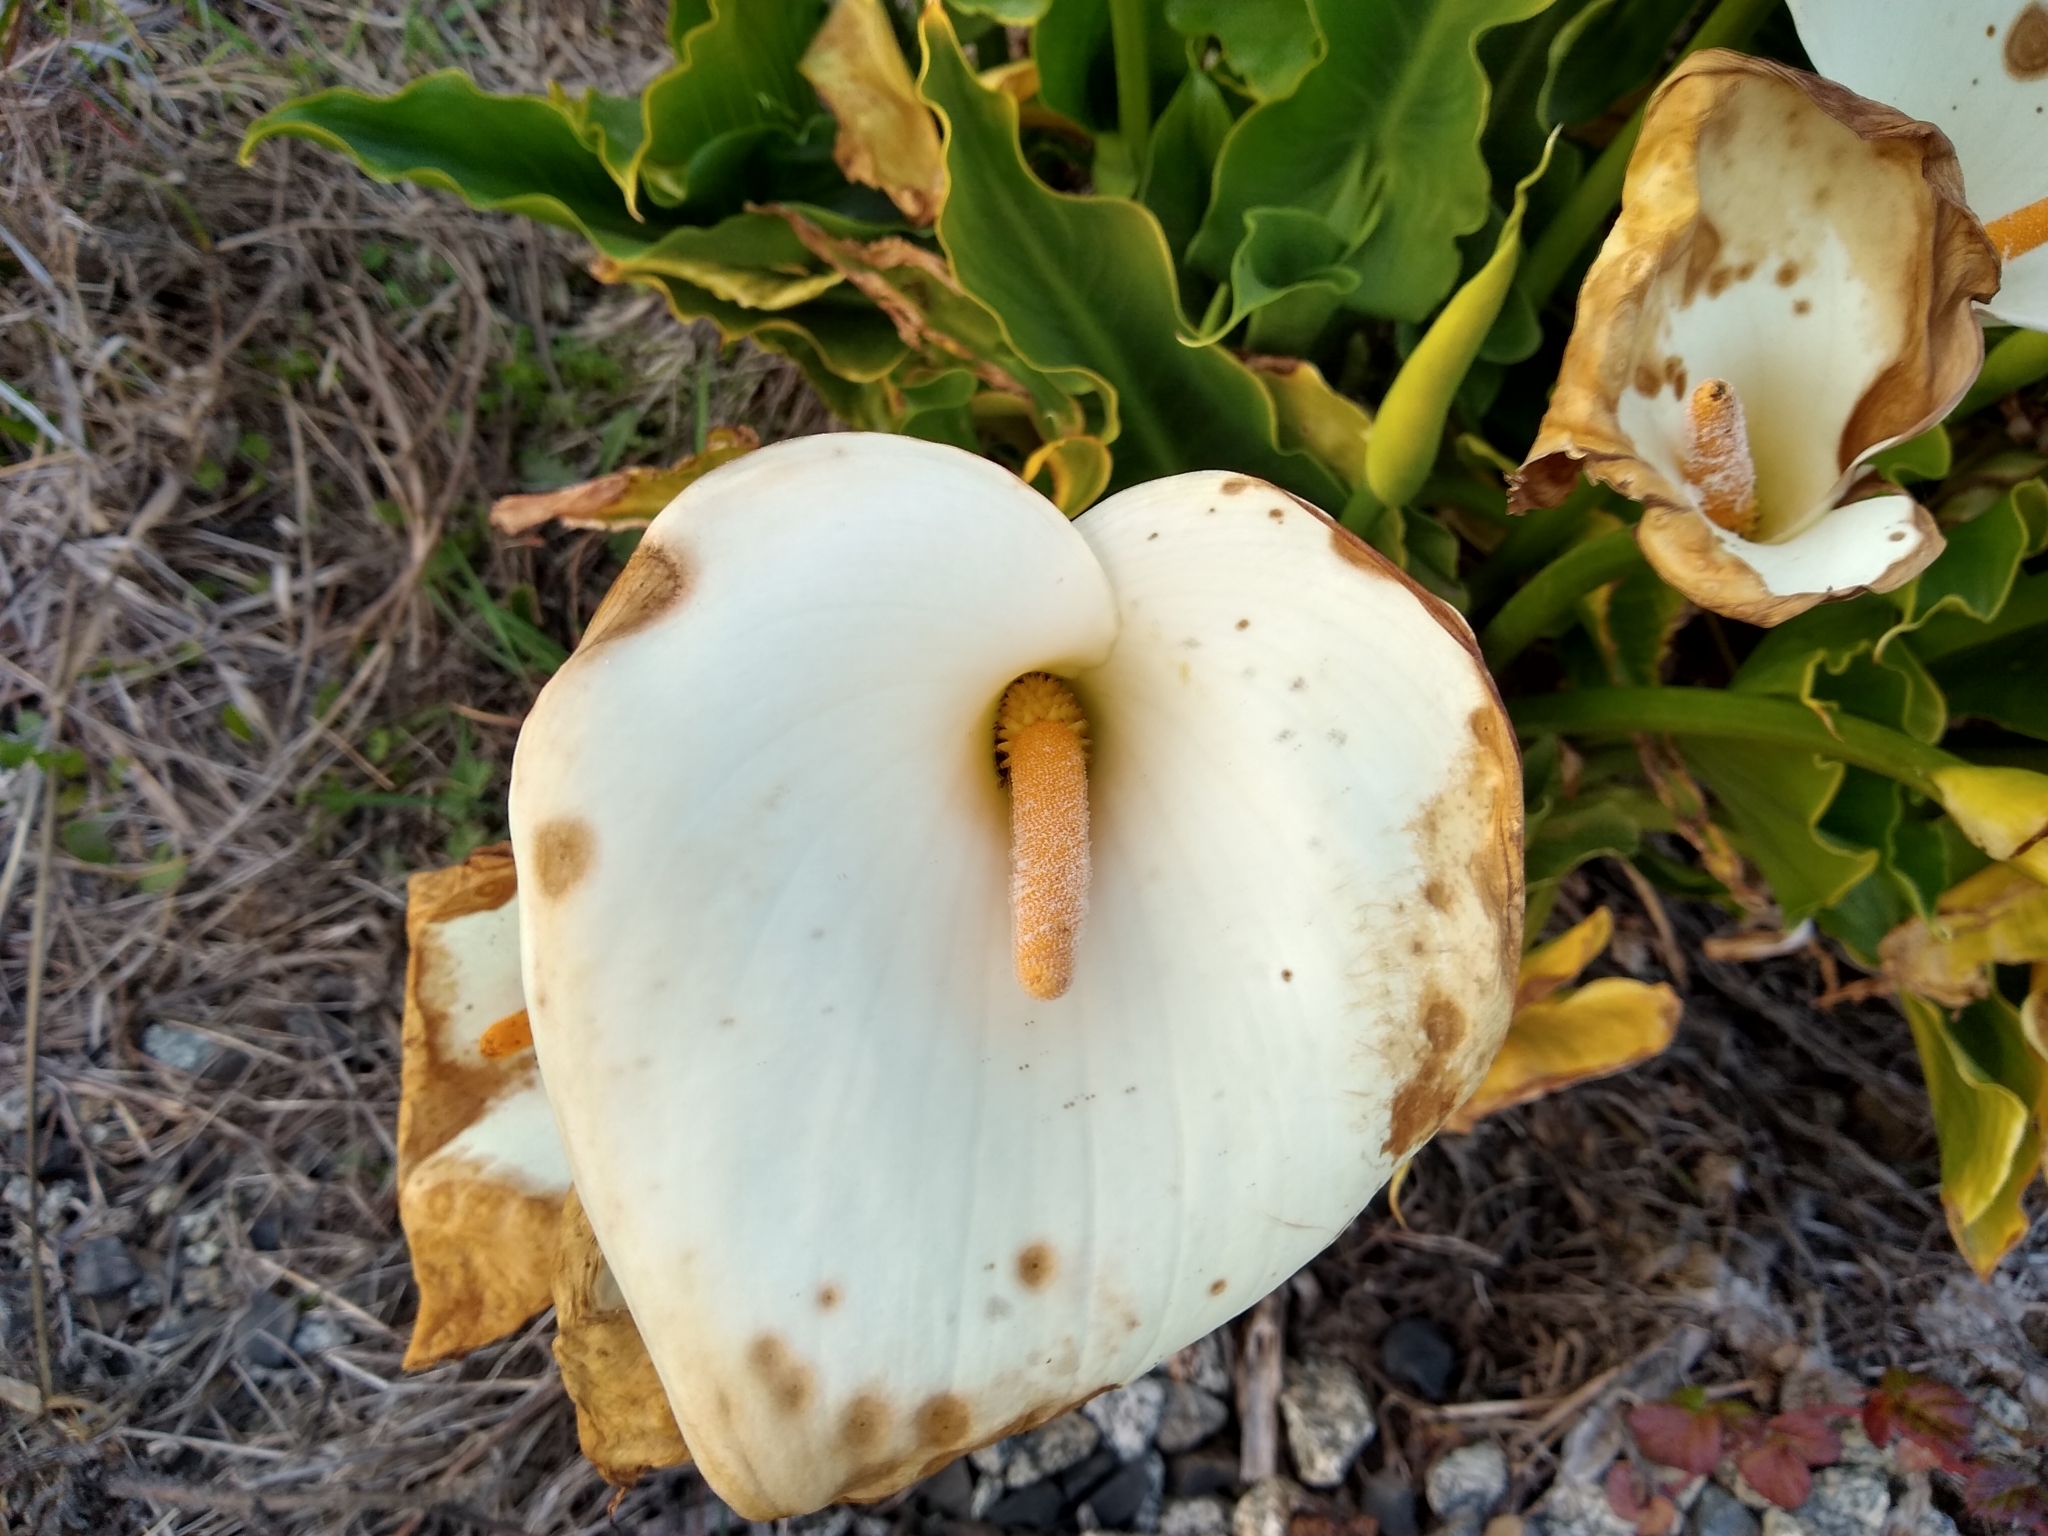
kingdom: Plantae
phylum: Tracheophyta
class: Liliopsida
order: Alismatales
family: Araceae
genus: Zantedeschia
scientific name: Zantedeschia aethiopica
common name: Altar-lily
